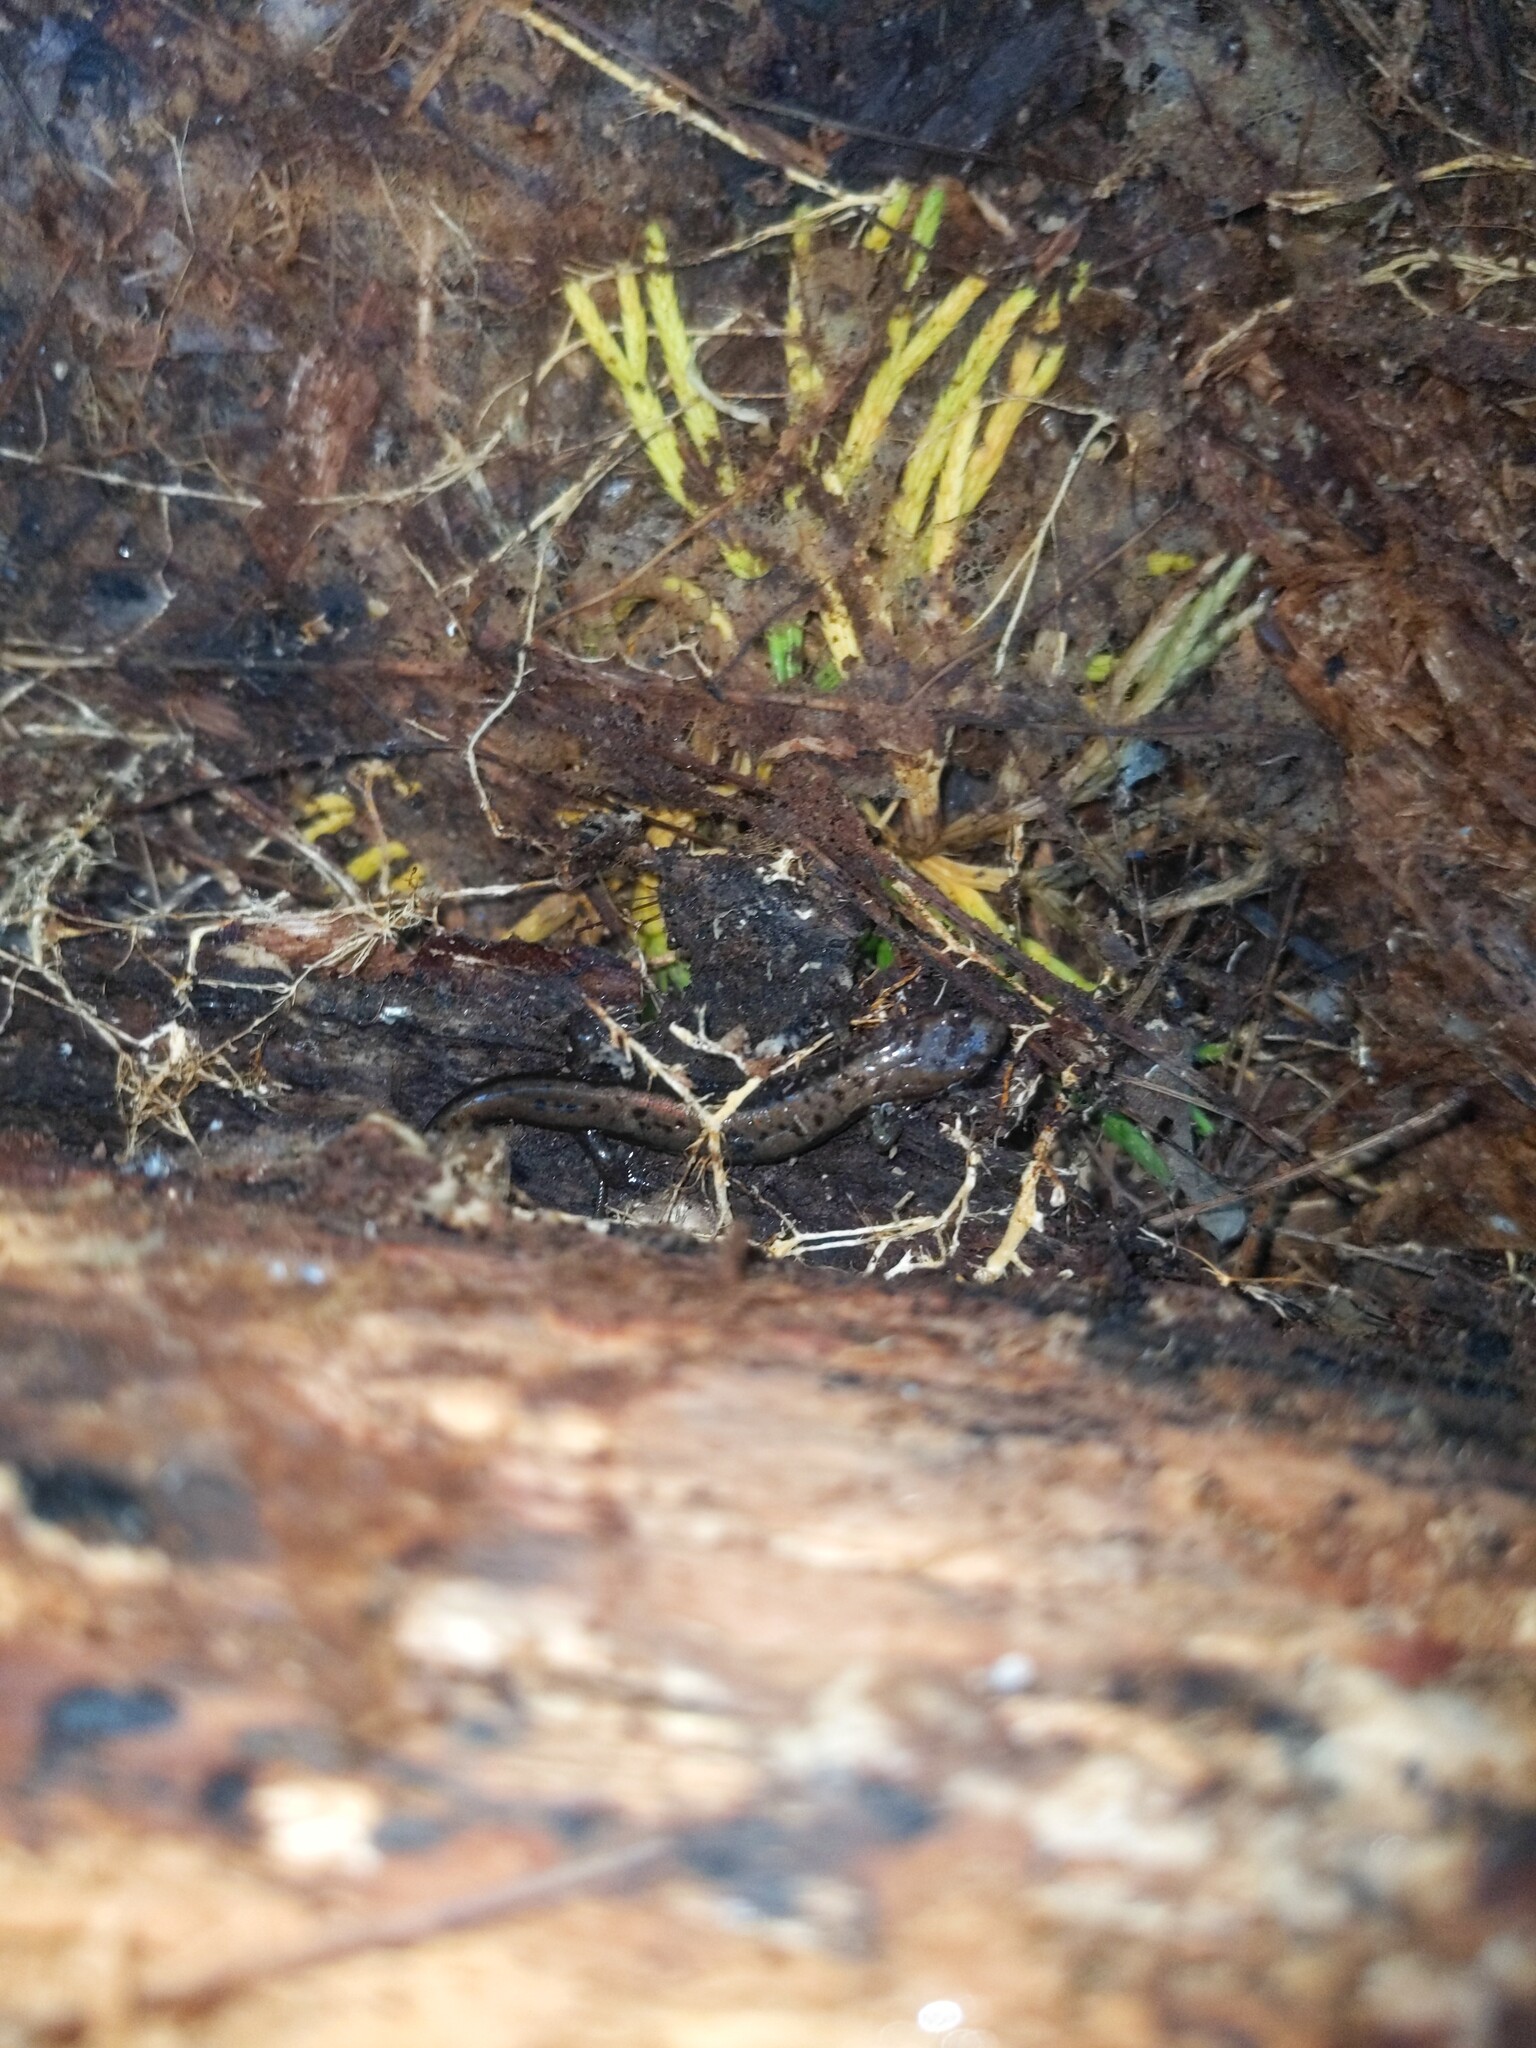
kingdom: Animalia
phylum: Chordata
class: Amphibia
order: Caudata
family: Plethodontidae
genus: Desmognathus
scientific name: Desmognathus ochrophaeus
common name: Allegheny mountain dusky salamander
